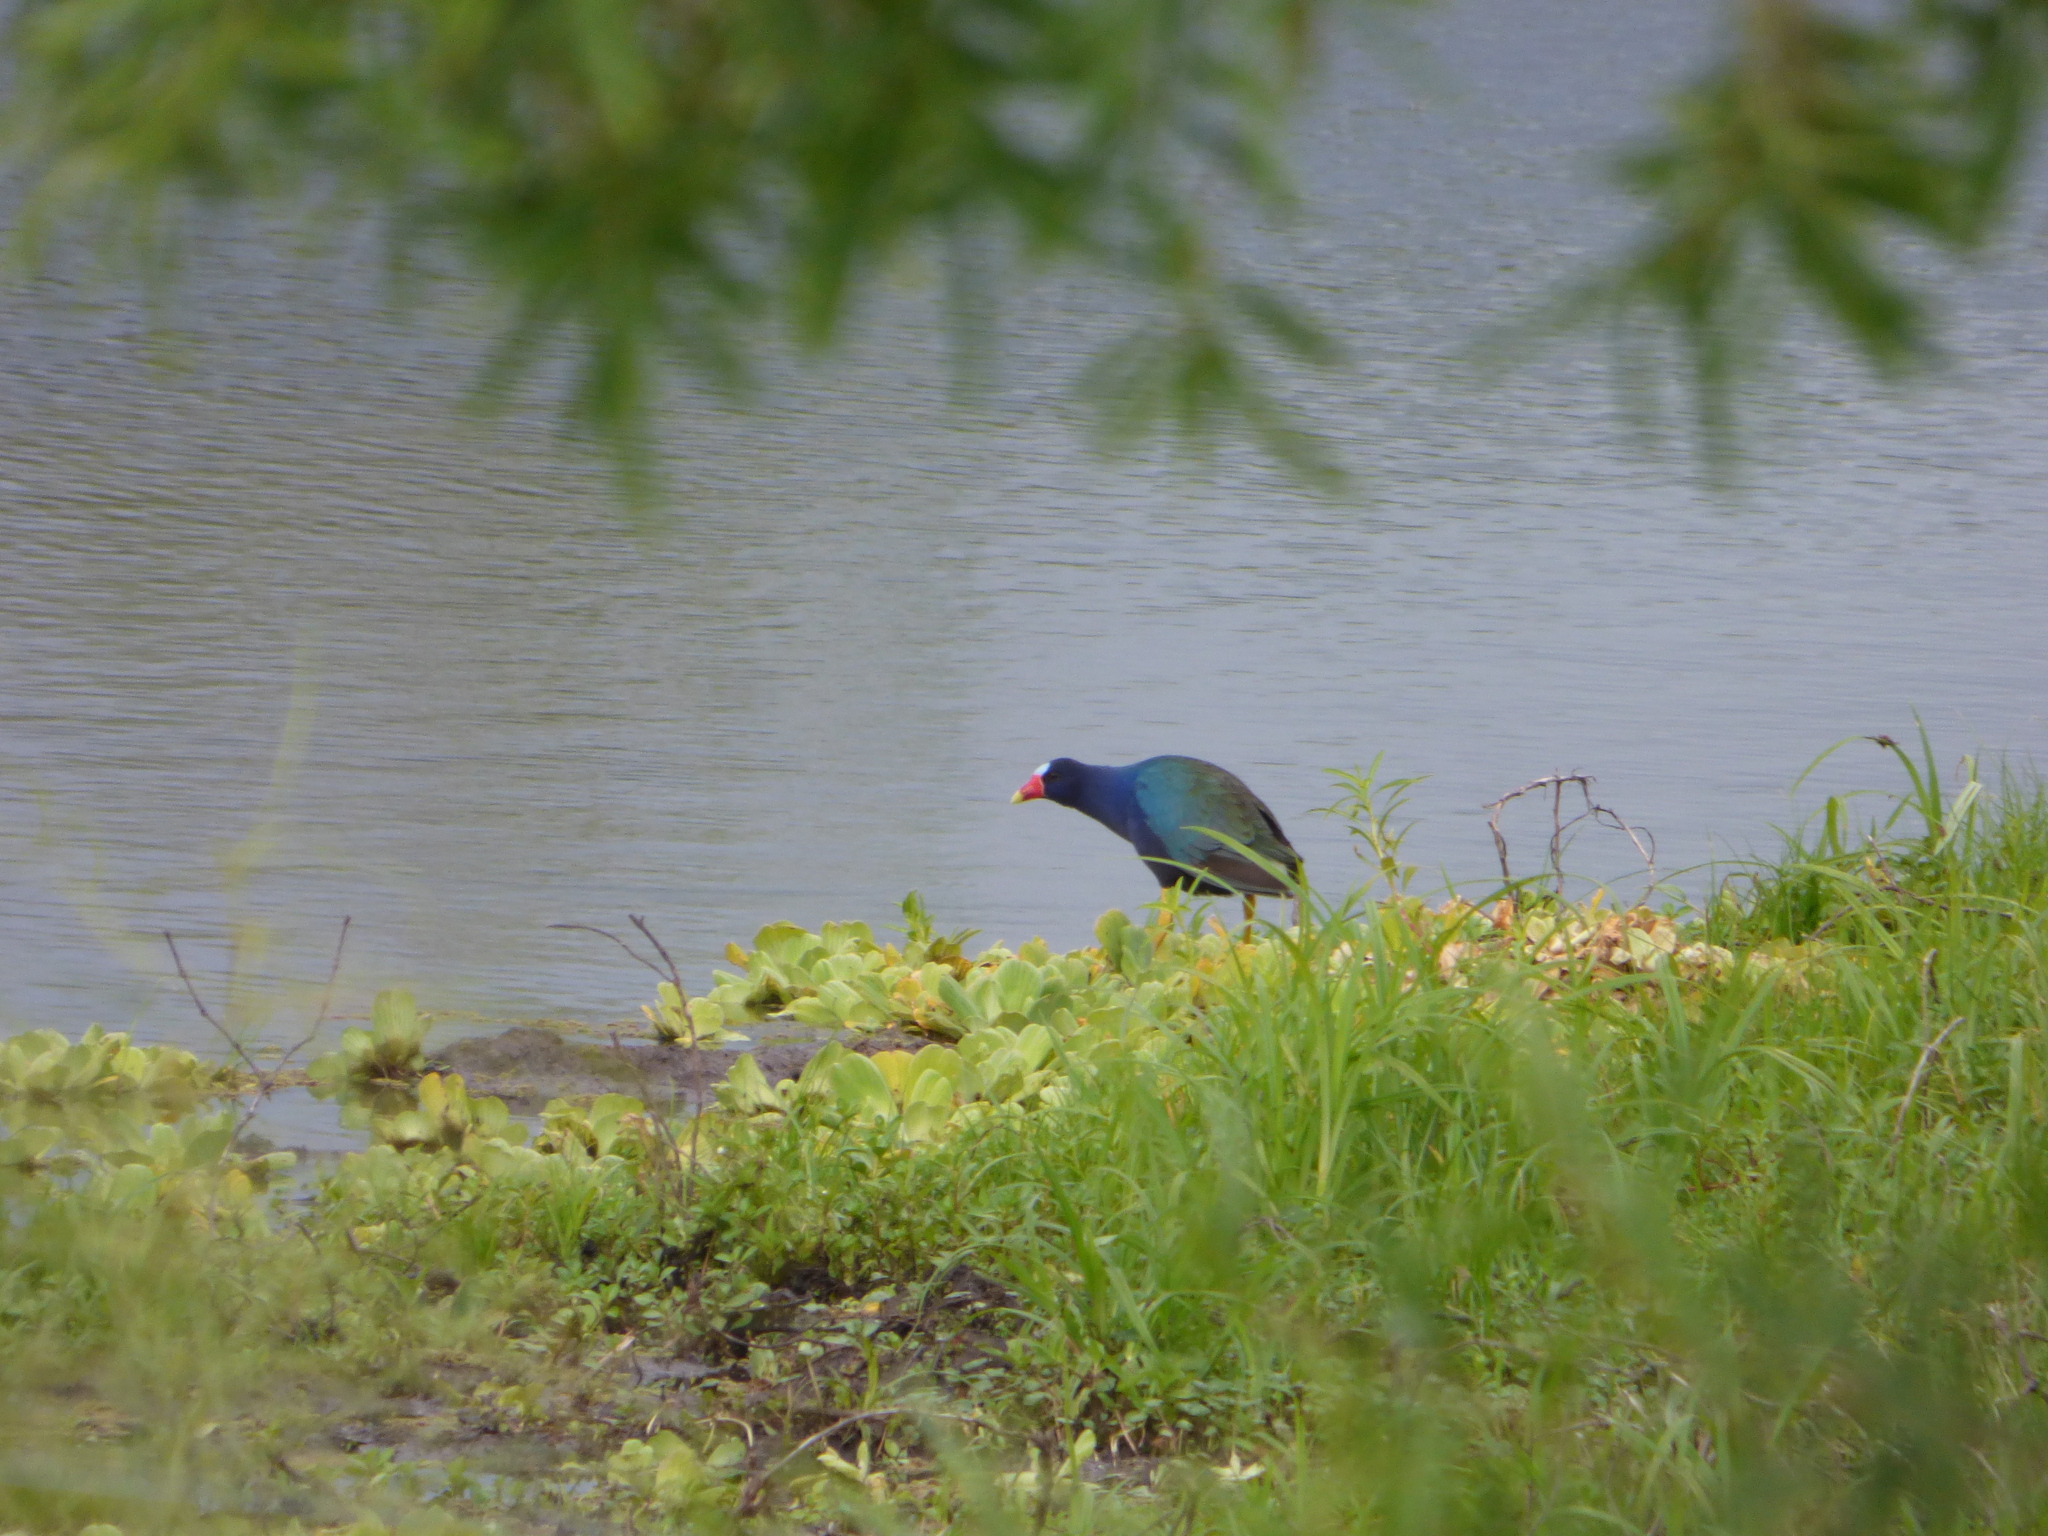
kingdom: Animalia
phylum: Chordata
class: Aves
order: Gruiformes
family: Rallidae
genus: Porphyrio
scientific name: Porphyrio martinica
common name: Purple gallinule
